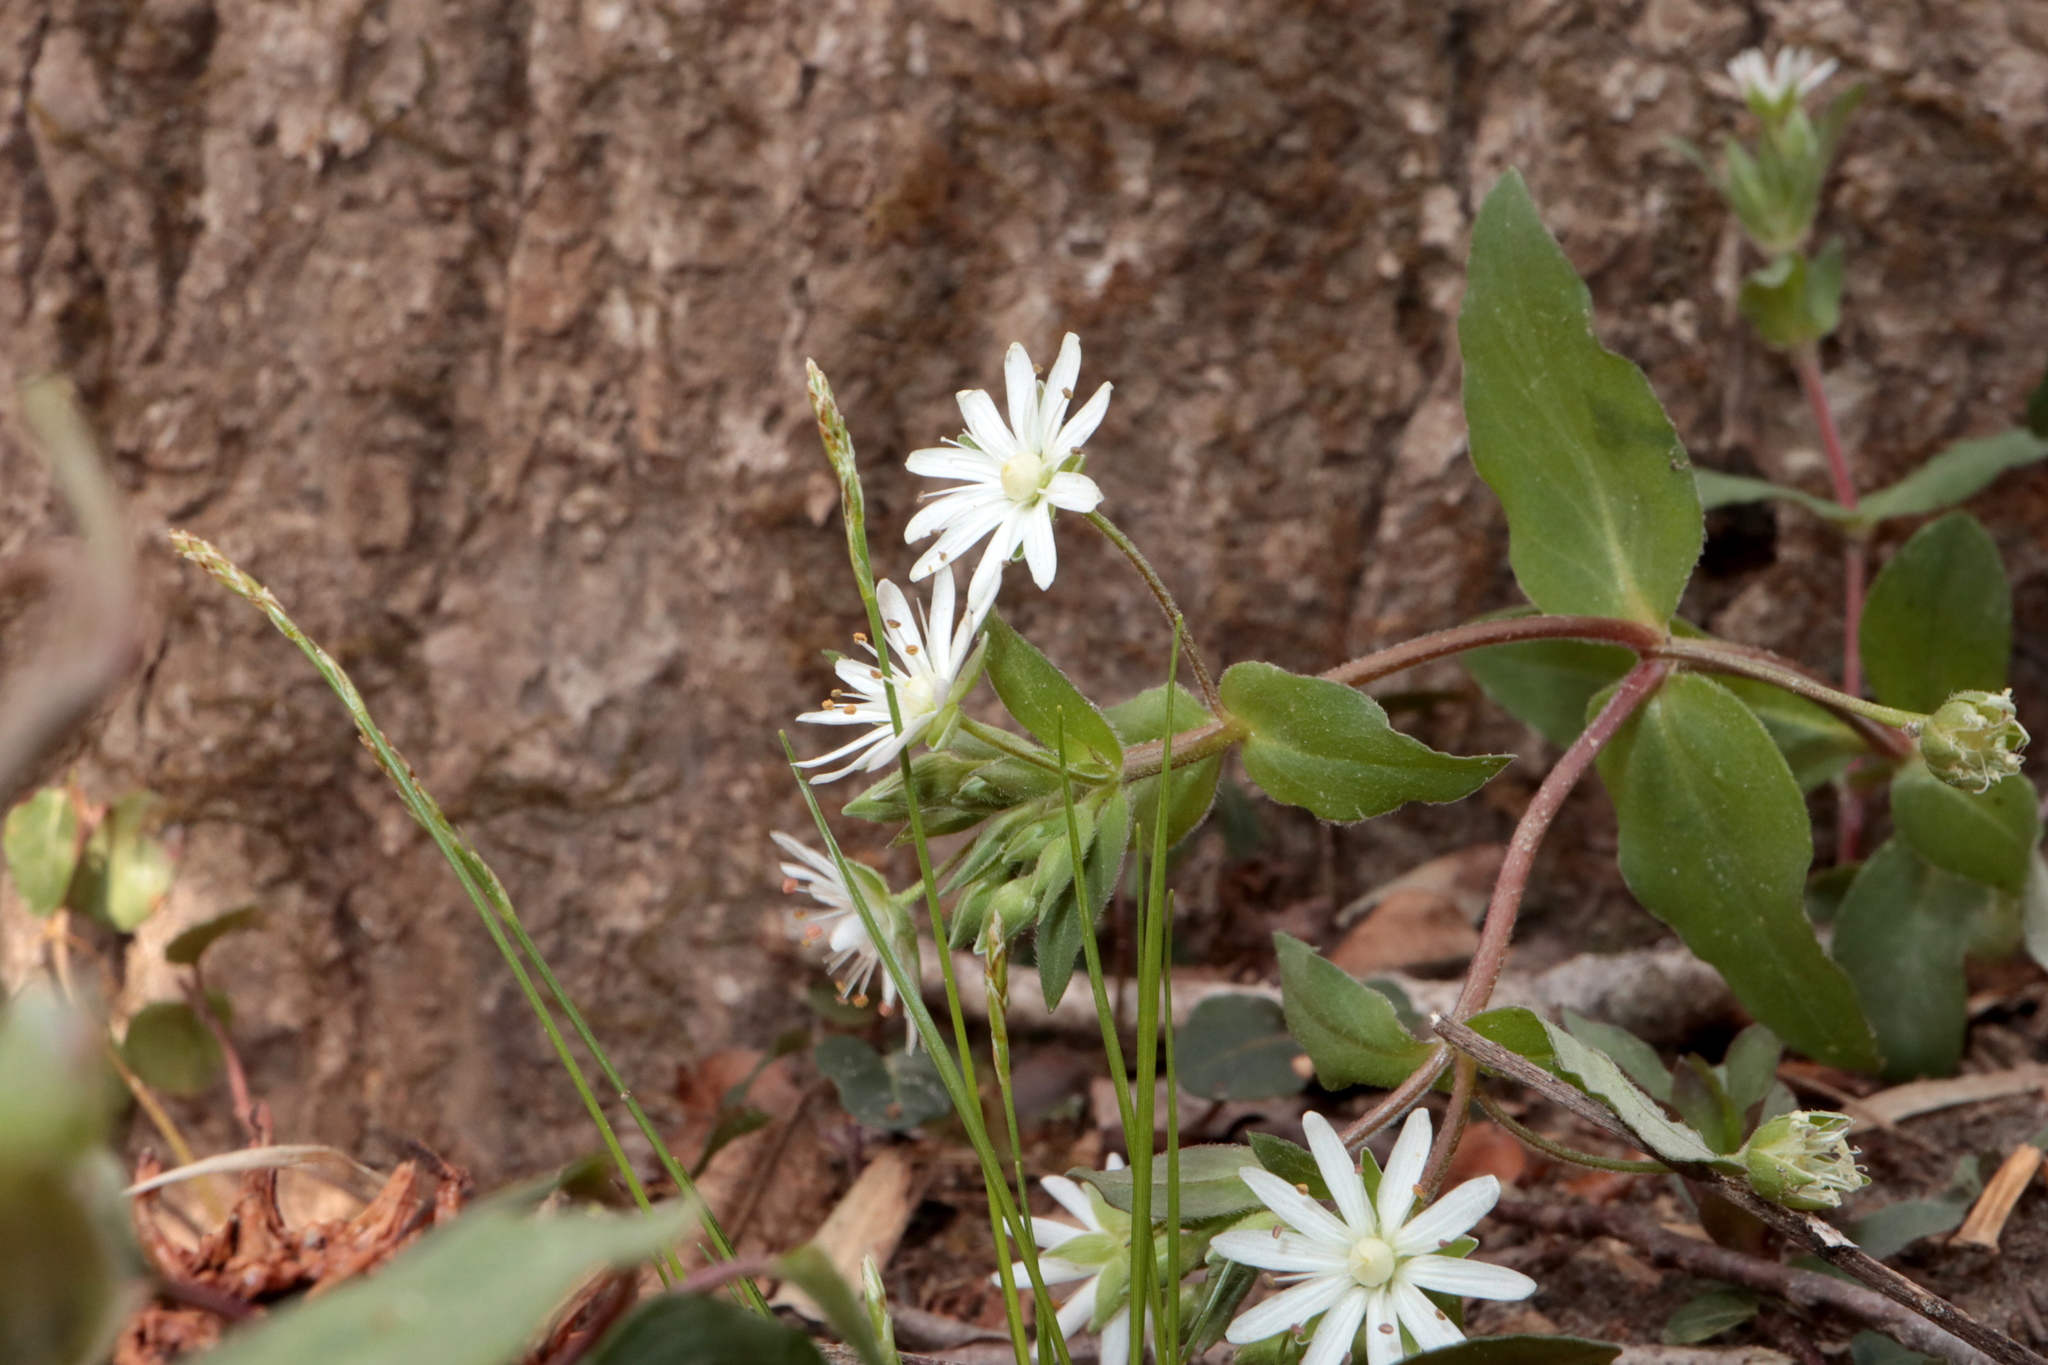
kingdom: Plantae
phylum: Tracheophyta
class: Magnoliopsida
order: Caryophyllales
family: Caryophyllaceae
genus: Stellaria
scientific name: Stellaria pubera
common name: Star chickweed
